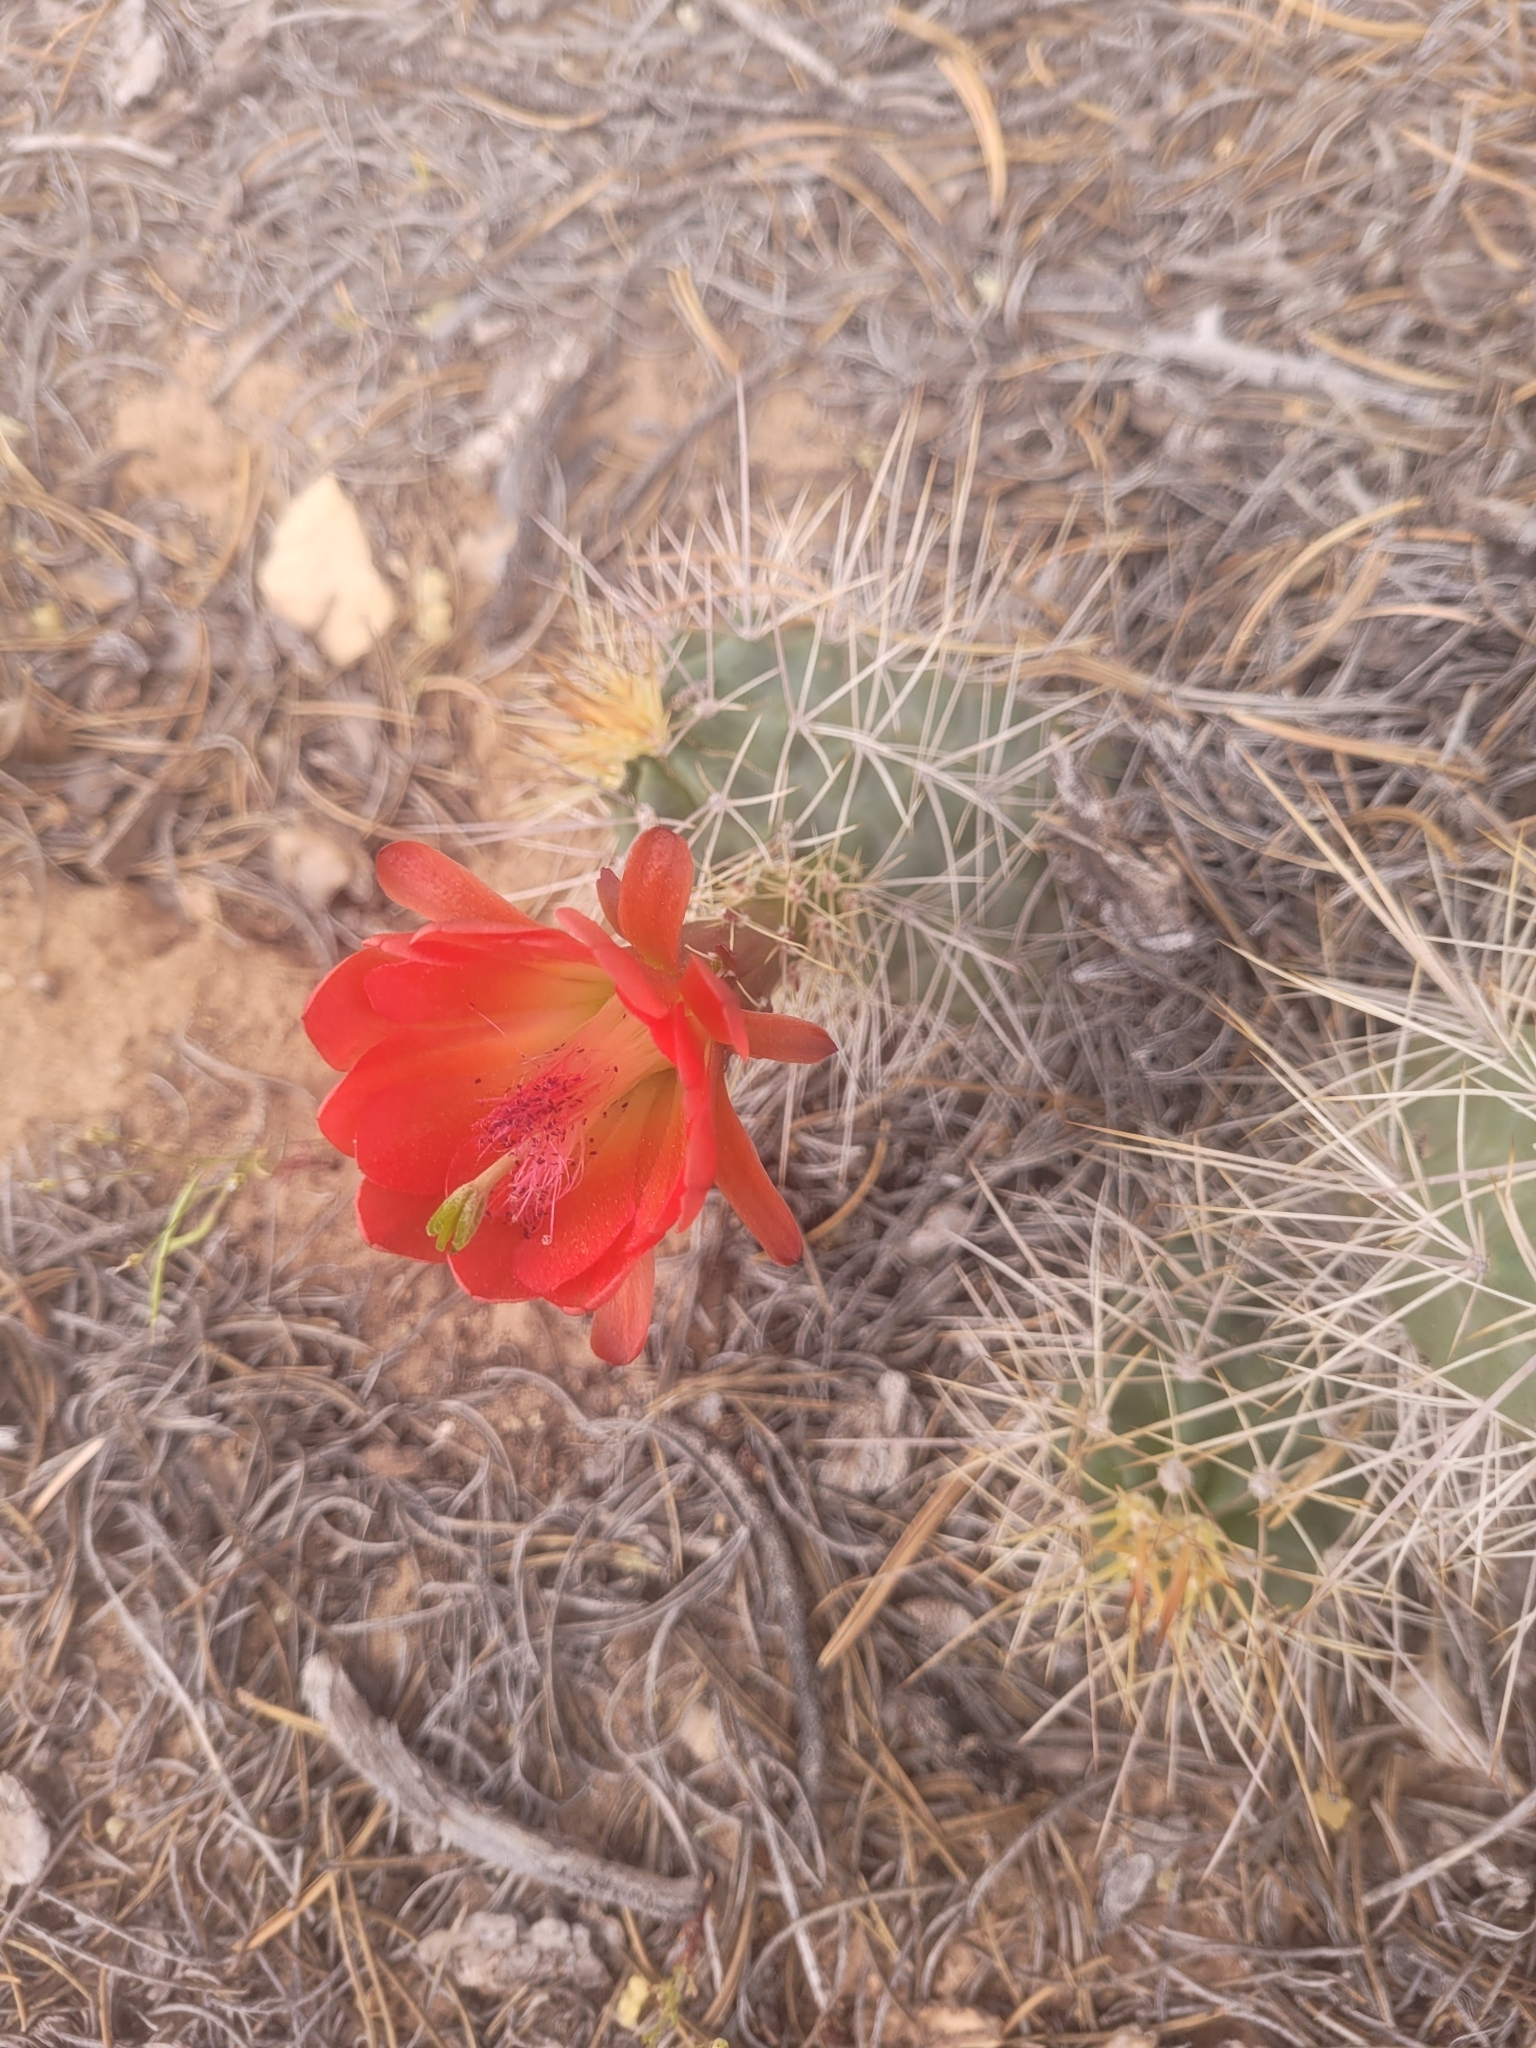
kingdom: Plantae
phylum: Tracheophyta
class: Magnoliopsida
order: Caryophyllales
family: Cactaceae
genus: Echinocereus
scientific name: Echinocereus triglochidiatus
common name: Claretcup hedgehog
